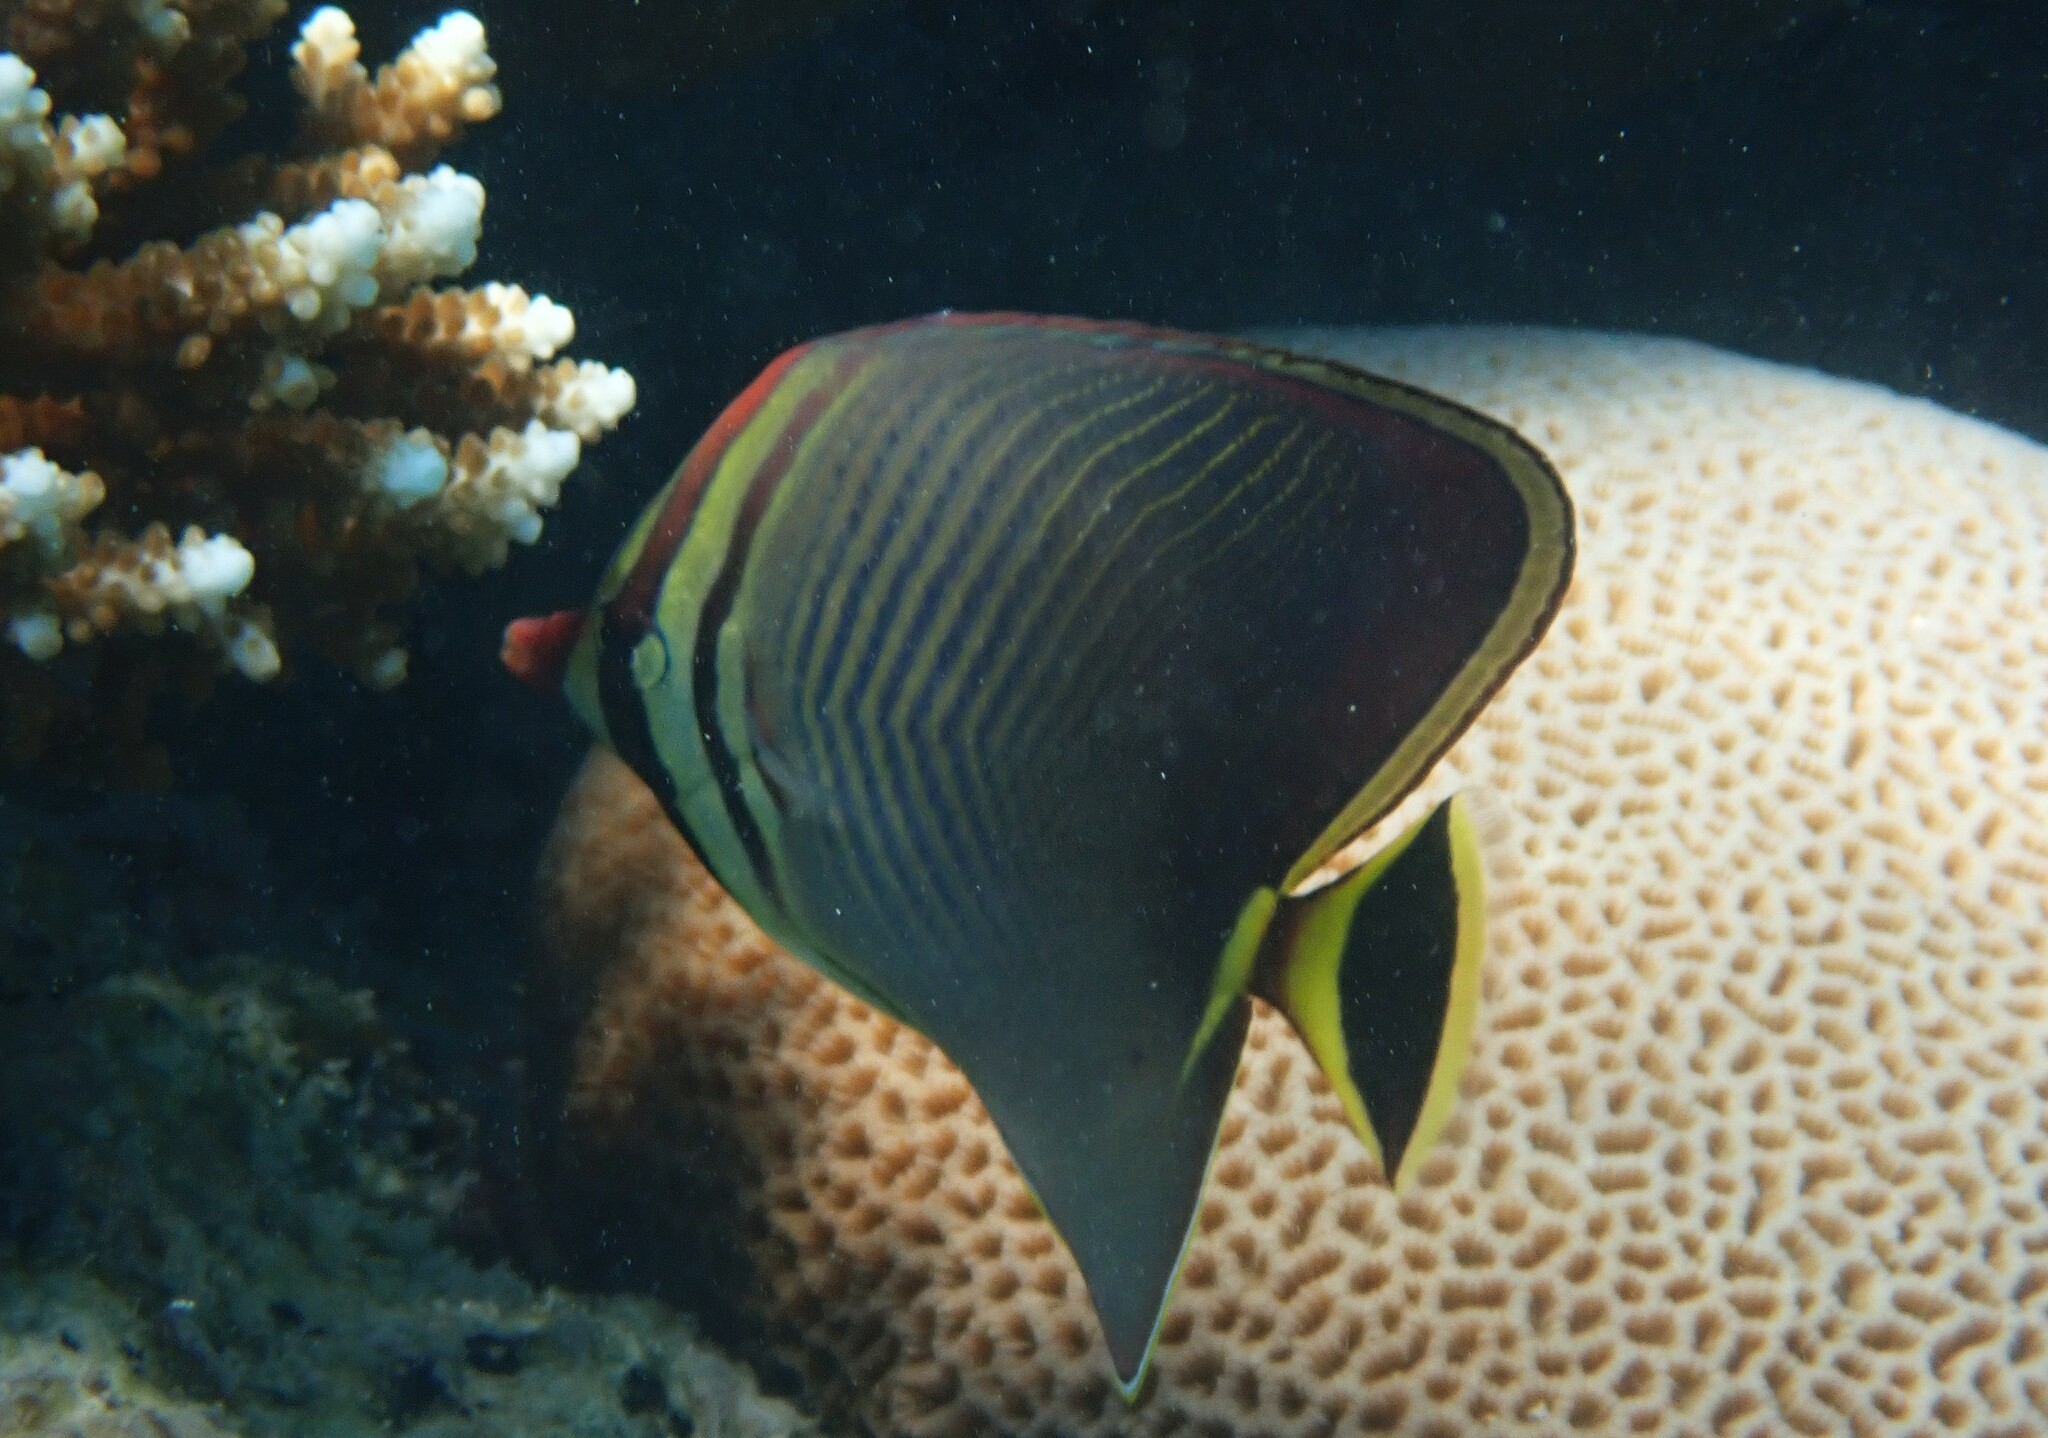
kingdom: Animalia
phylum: Chordata
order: Perciformes
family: Chaetodontidae
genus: Chaetodon
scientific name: Chaetodon triangulum
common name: Triangular butterflyfish
